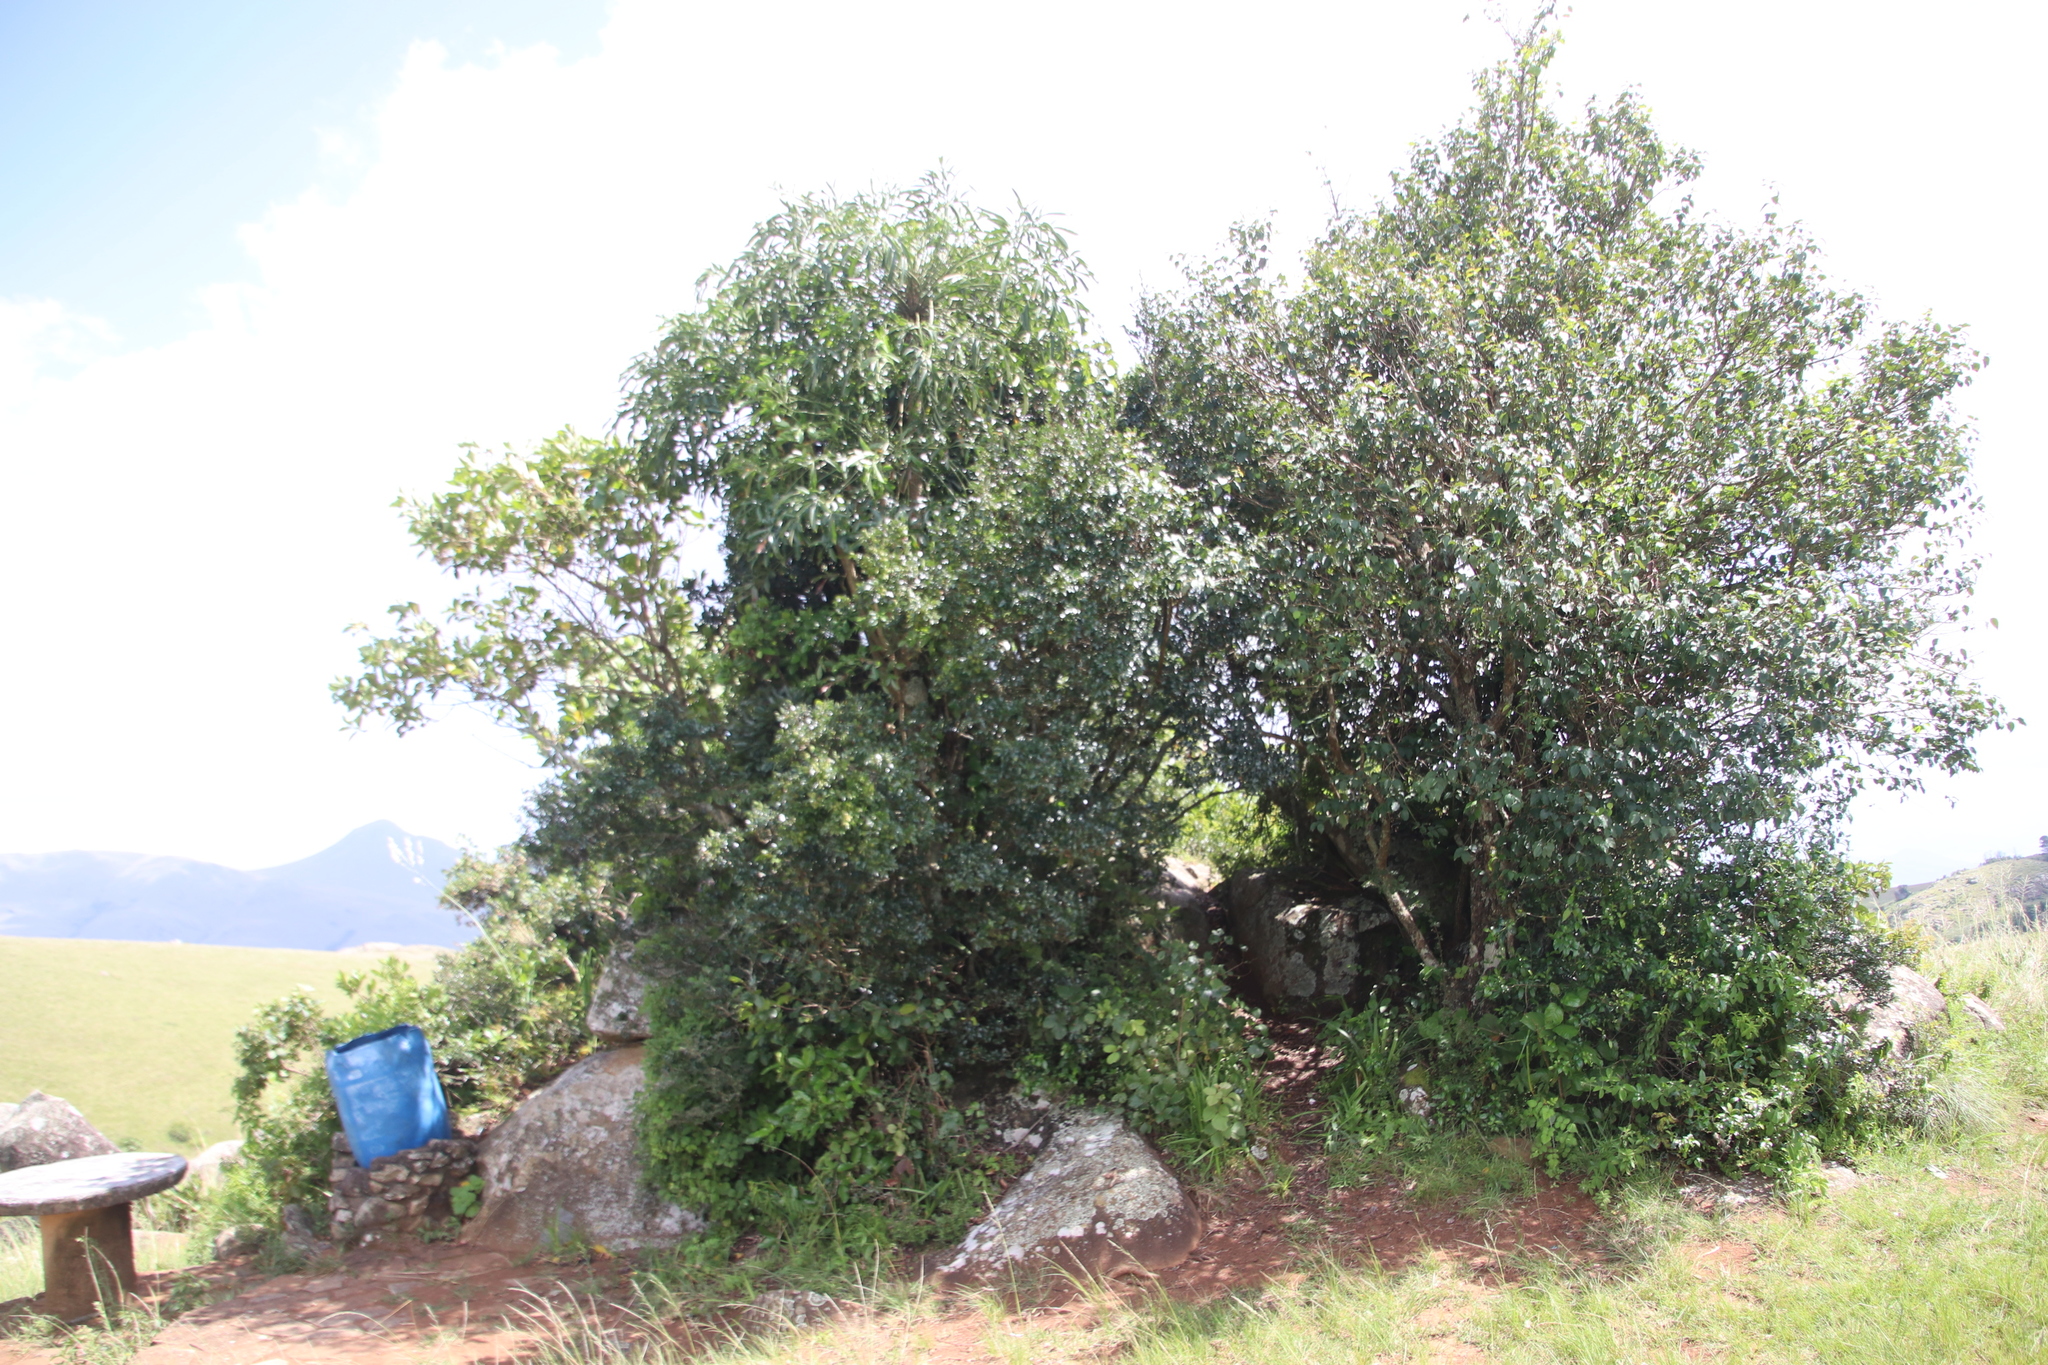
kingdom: Plantae
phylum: Tracheophyta
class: Magnoliopsida
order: Apiales
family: Araliaceae
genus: Cussonia
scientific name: Cussonia spicata
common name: Common cabbagetree
